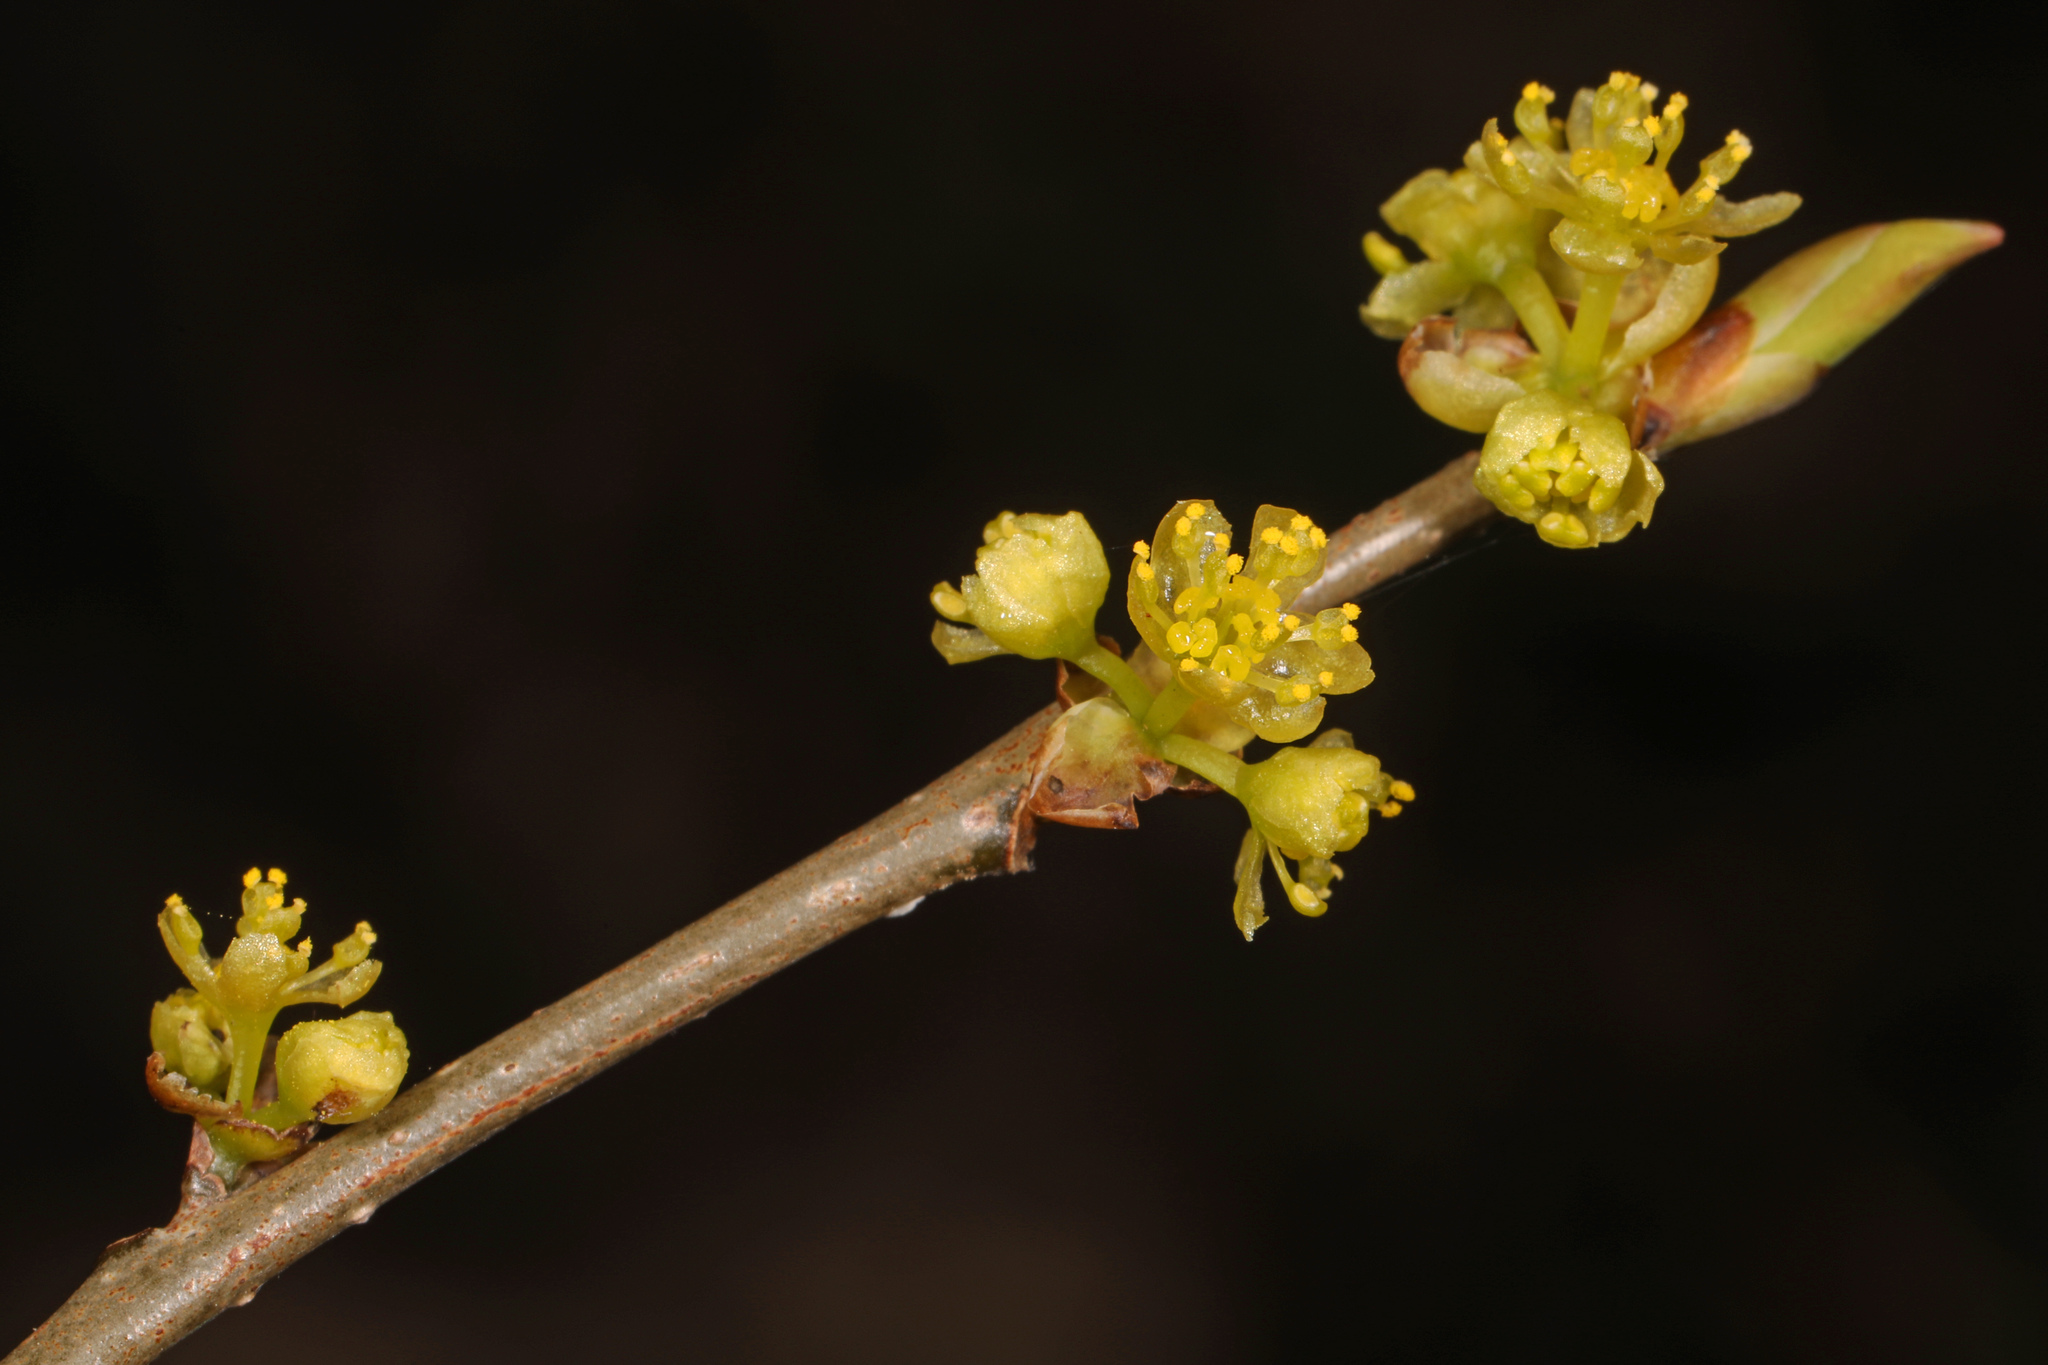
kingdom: Plantae
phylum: Tracheophyta
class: Magnoliopsida
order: Laurales
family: Lauraceae
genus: Lindera
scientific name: Lindera benzoin
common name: Spicebush
